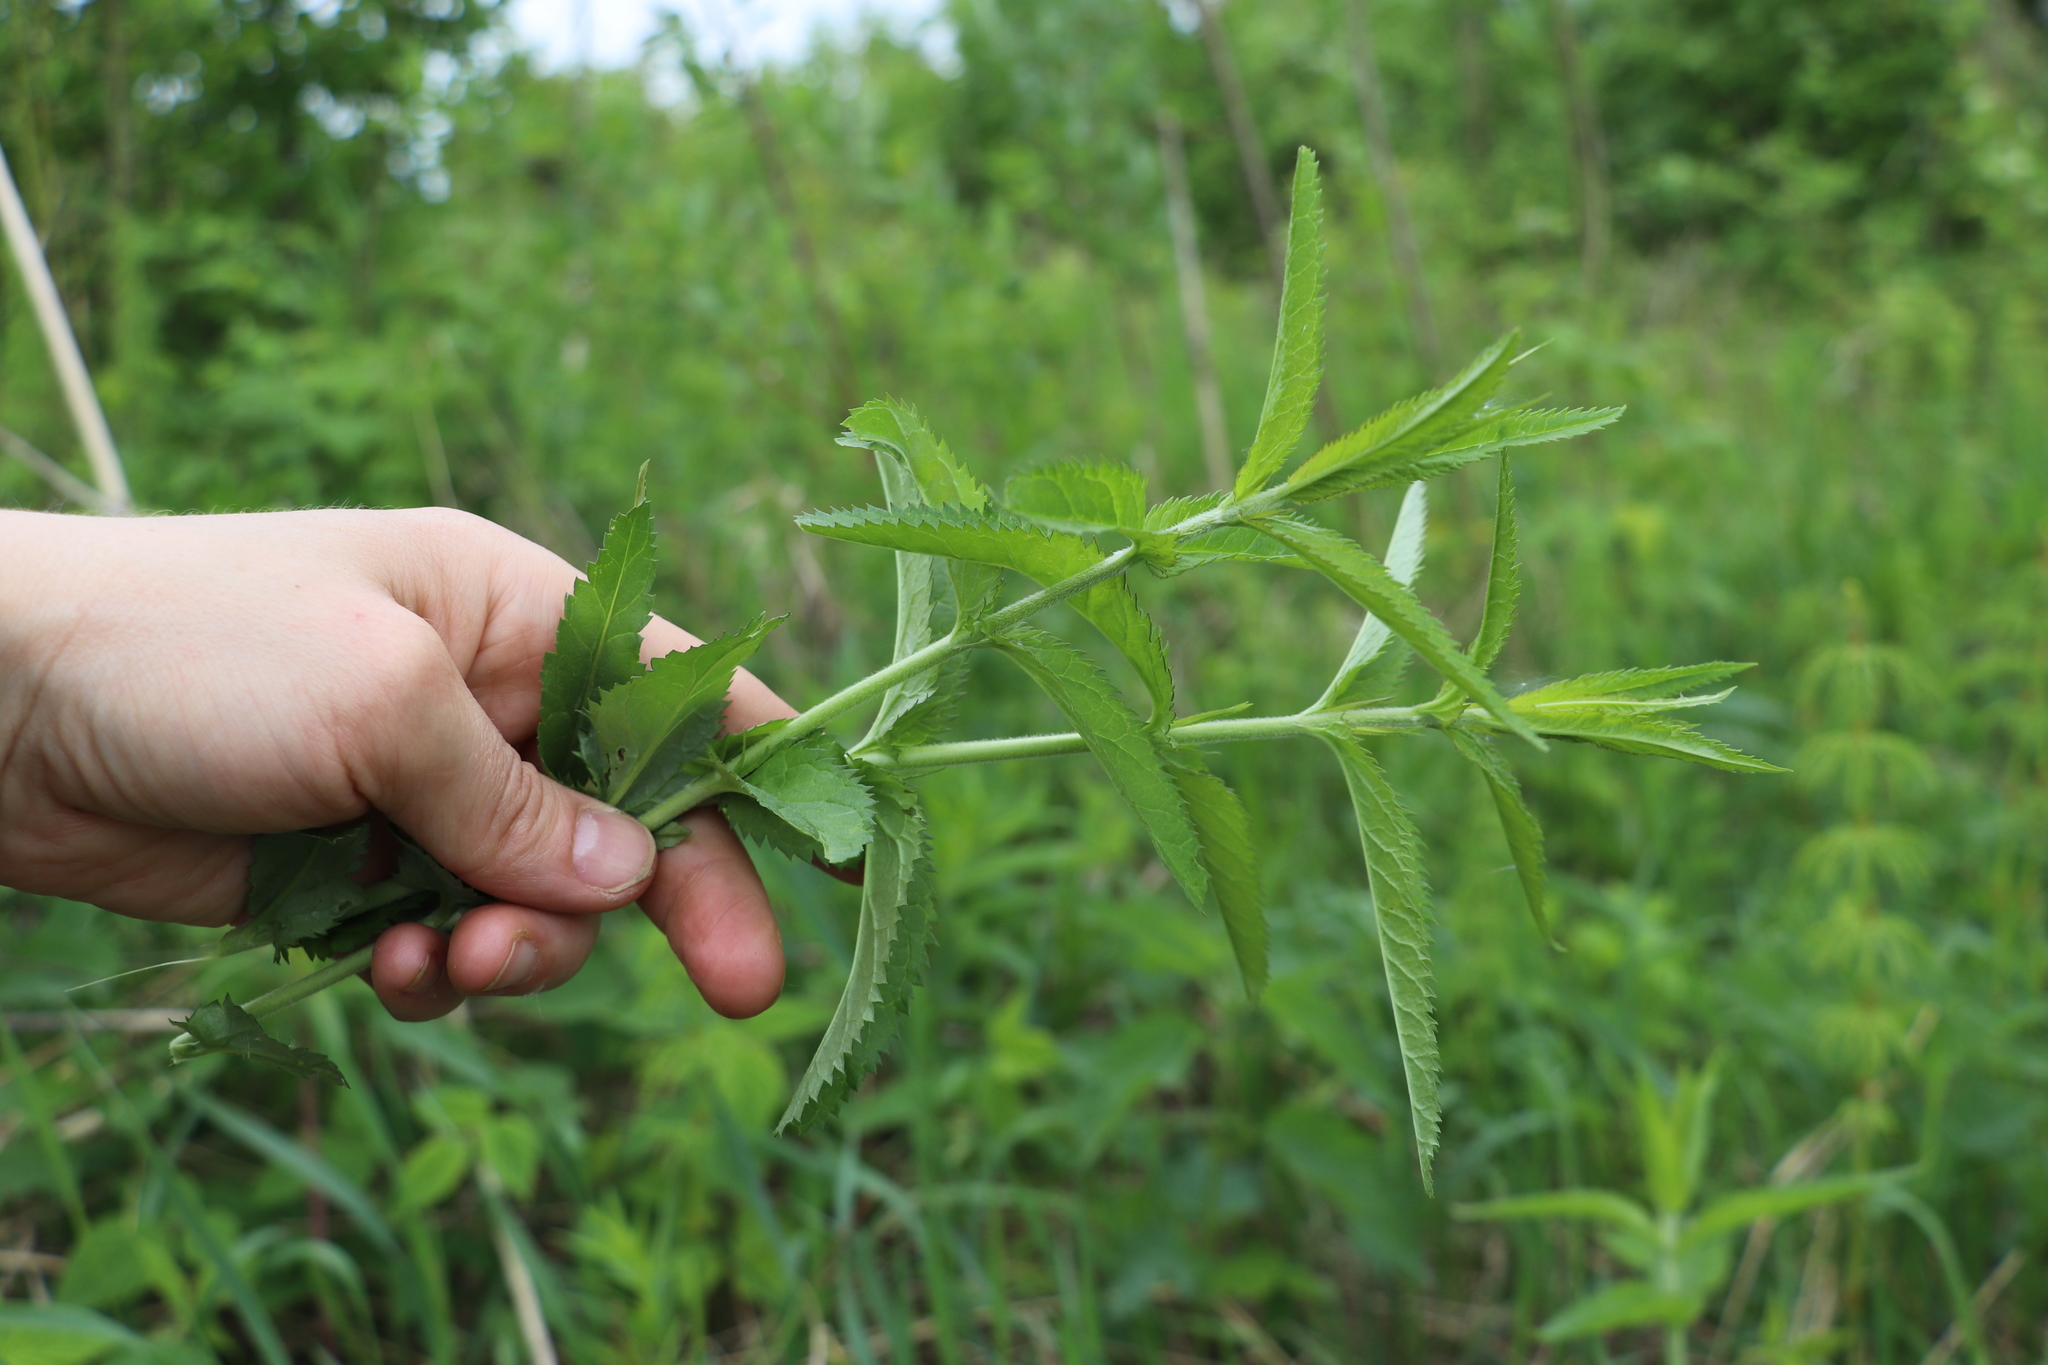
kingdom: Plantae
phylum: Tracheophyta
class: Magnoliopsida
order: Lamiales
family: Plantaginaceae
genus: Veronica
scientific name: Veronica longifolia
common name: Garden speedwell
